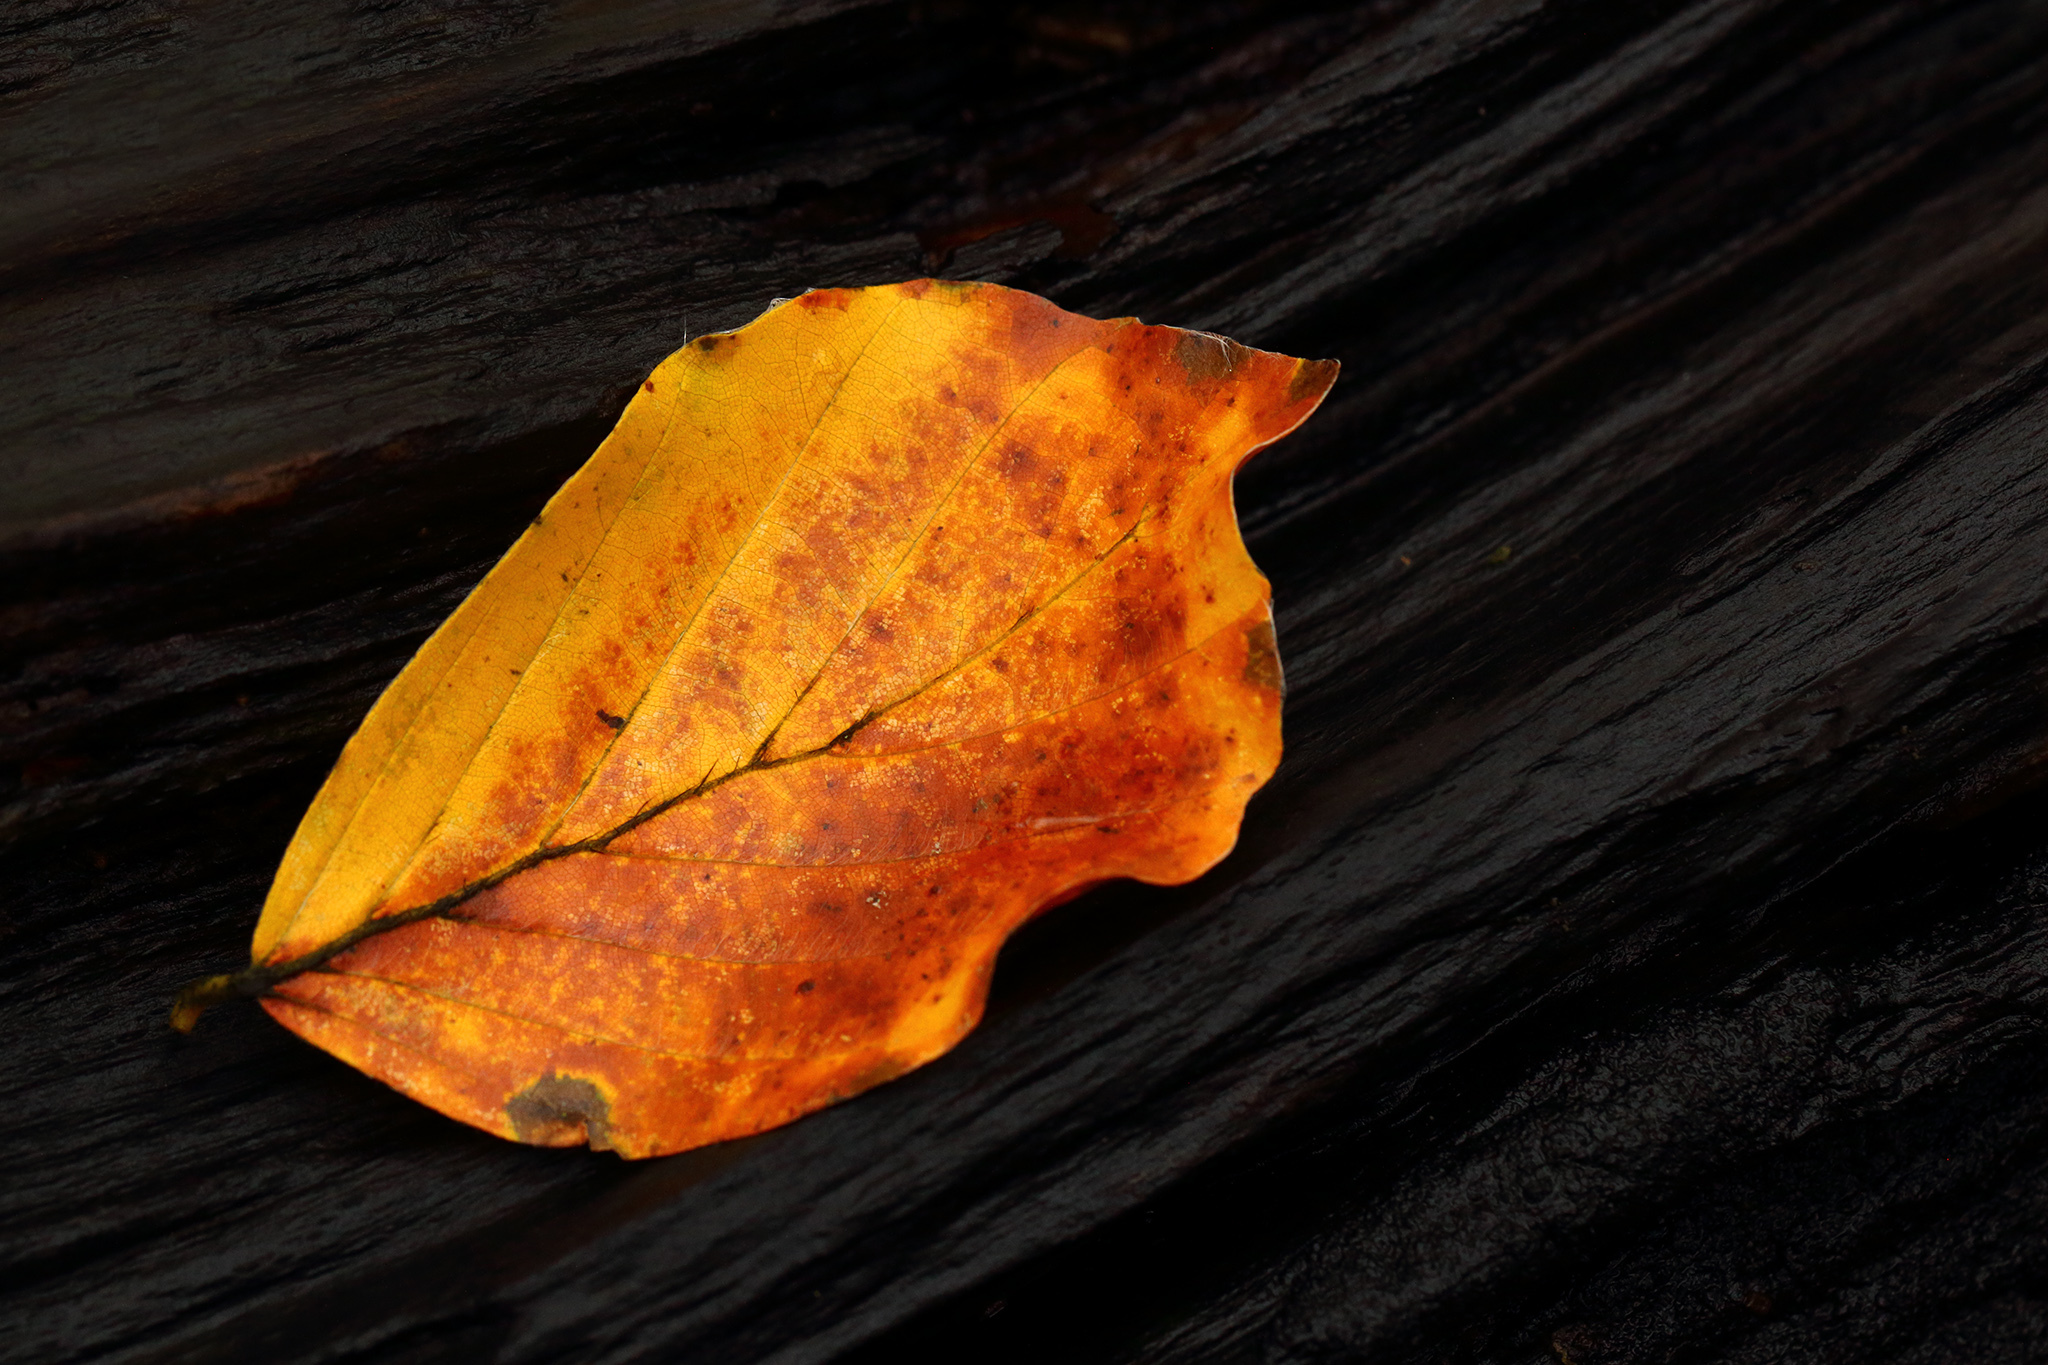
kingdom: Plantae
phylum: Tracheophyta
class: Magnoliopsida
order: Fagales
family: Fagaceae
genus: Fagus
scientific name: Fagus sylvatica
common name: Beech
